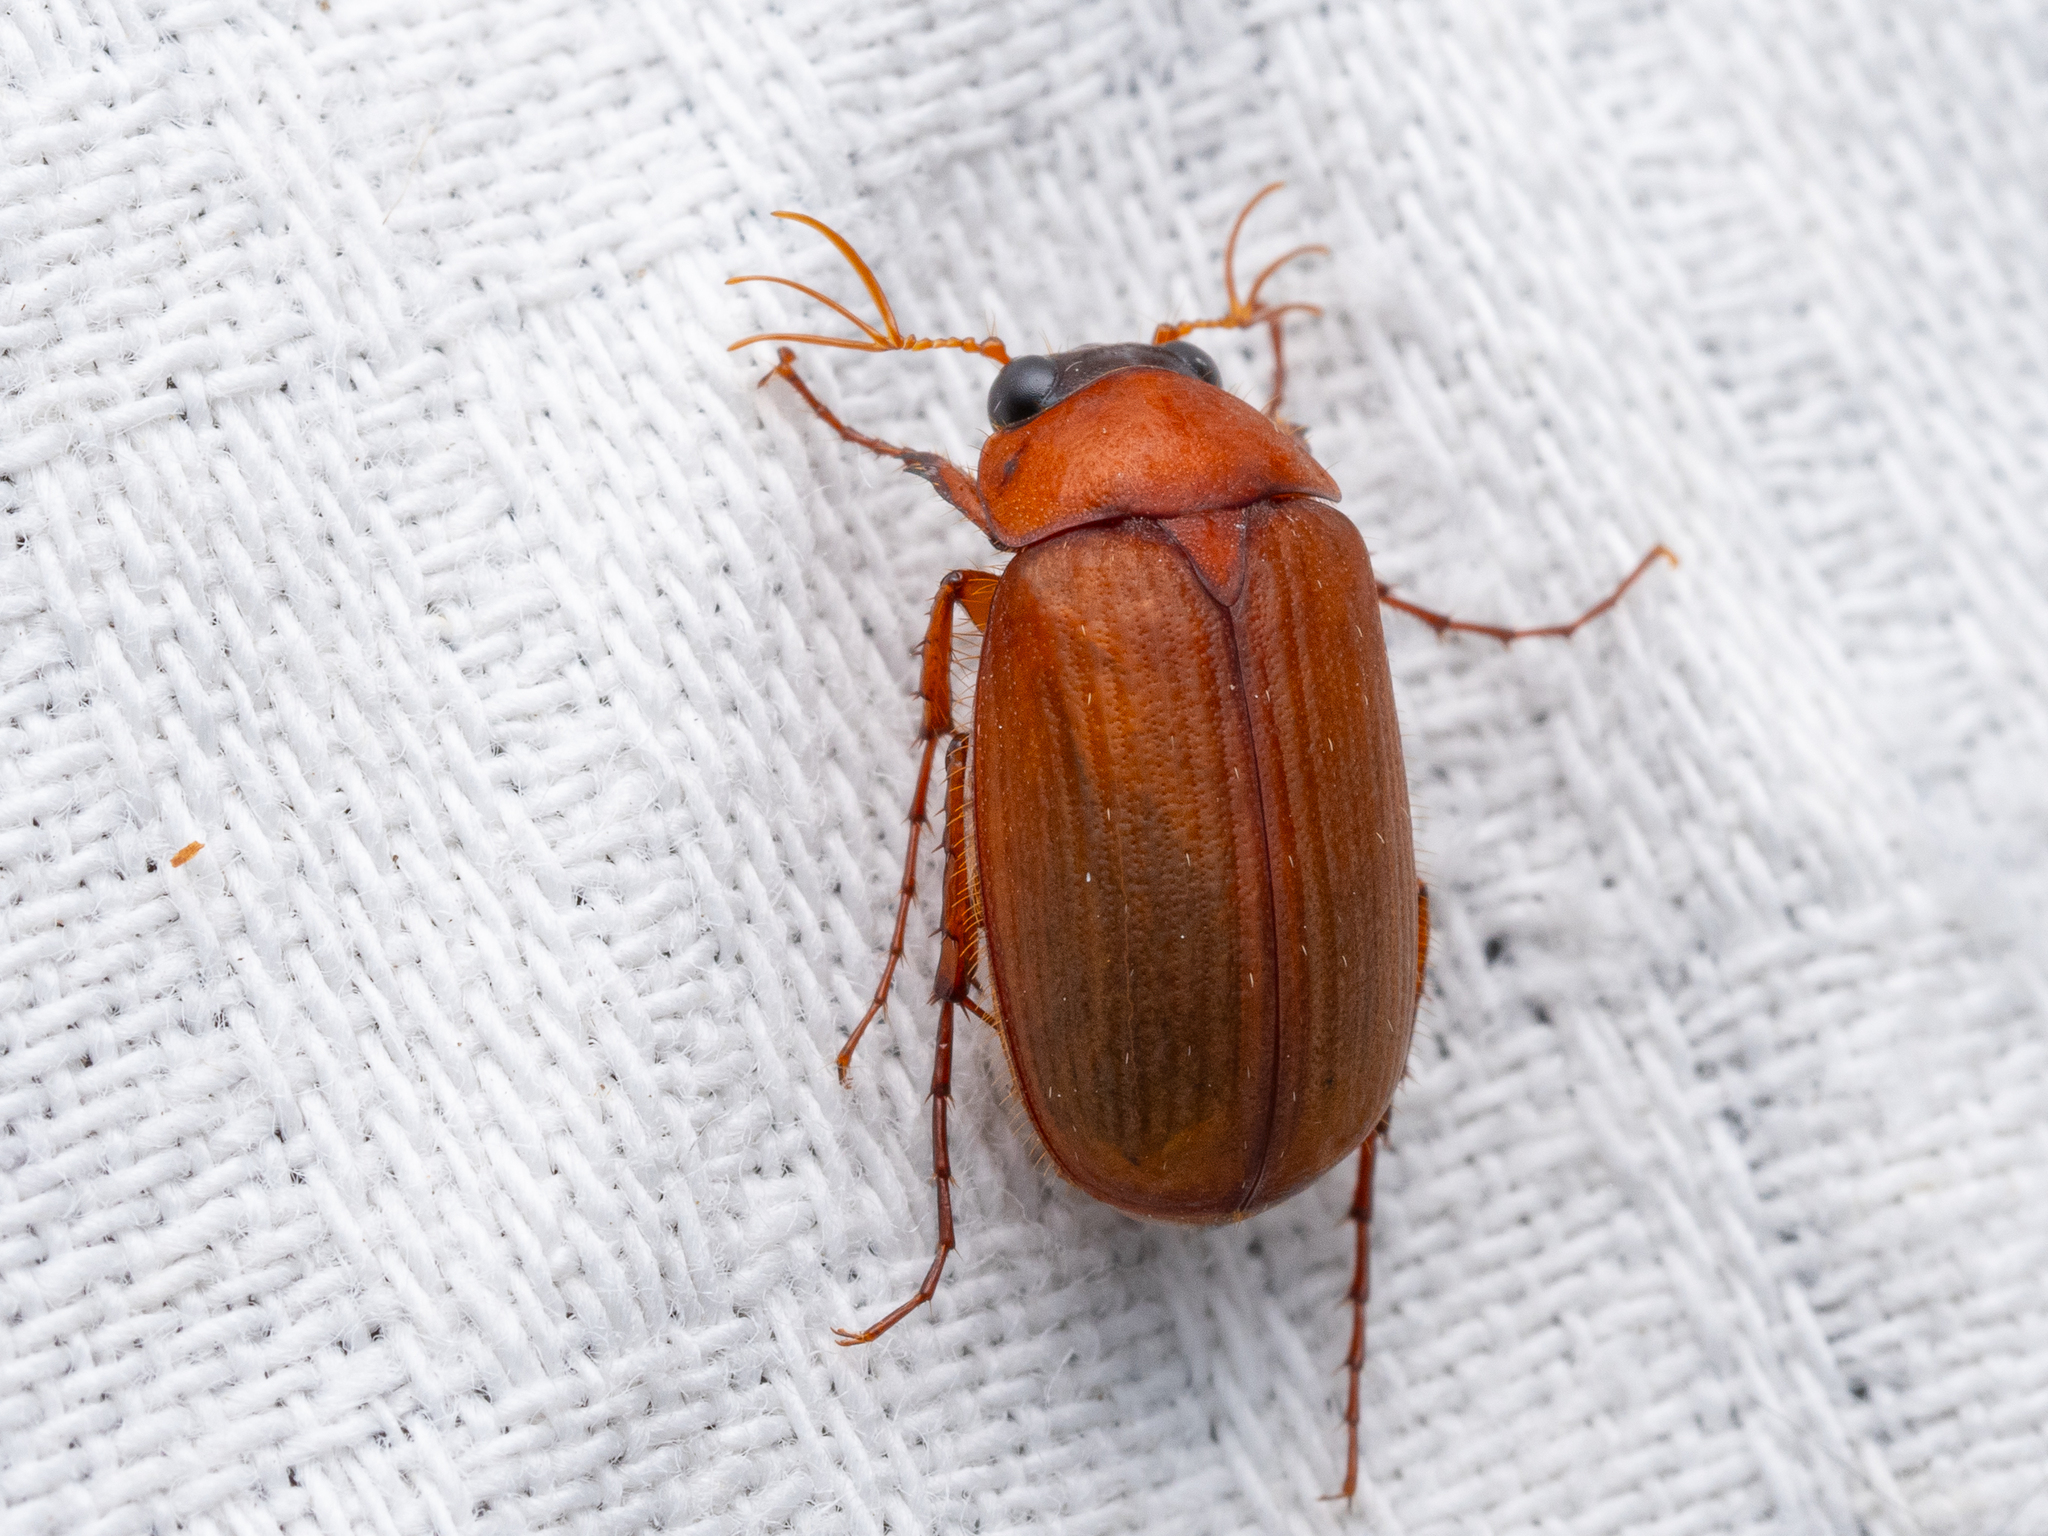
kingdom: Animalia
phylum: Arthropoda
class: Insecta
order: Coleoptera
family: Scarabaeidae
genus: Serica
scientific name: Serica brunnea
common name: Brown chafer
